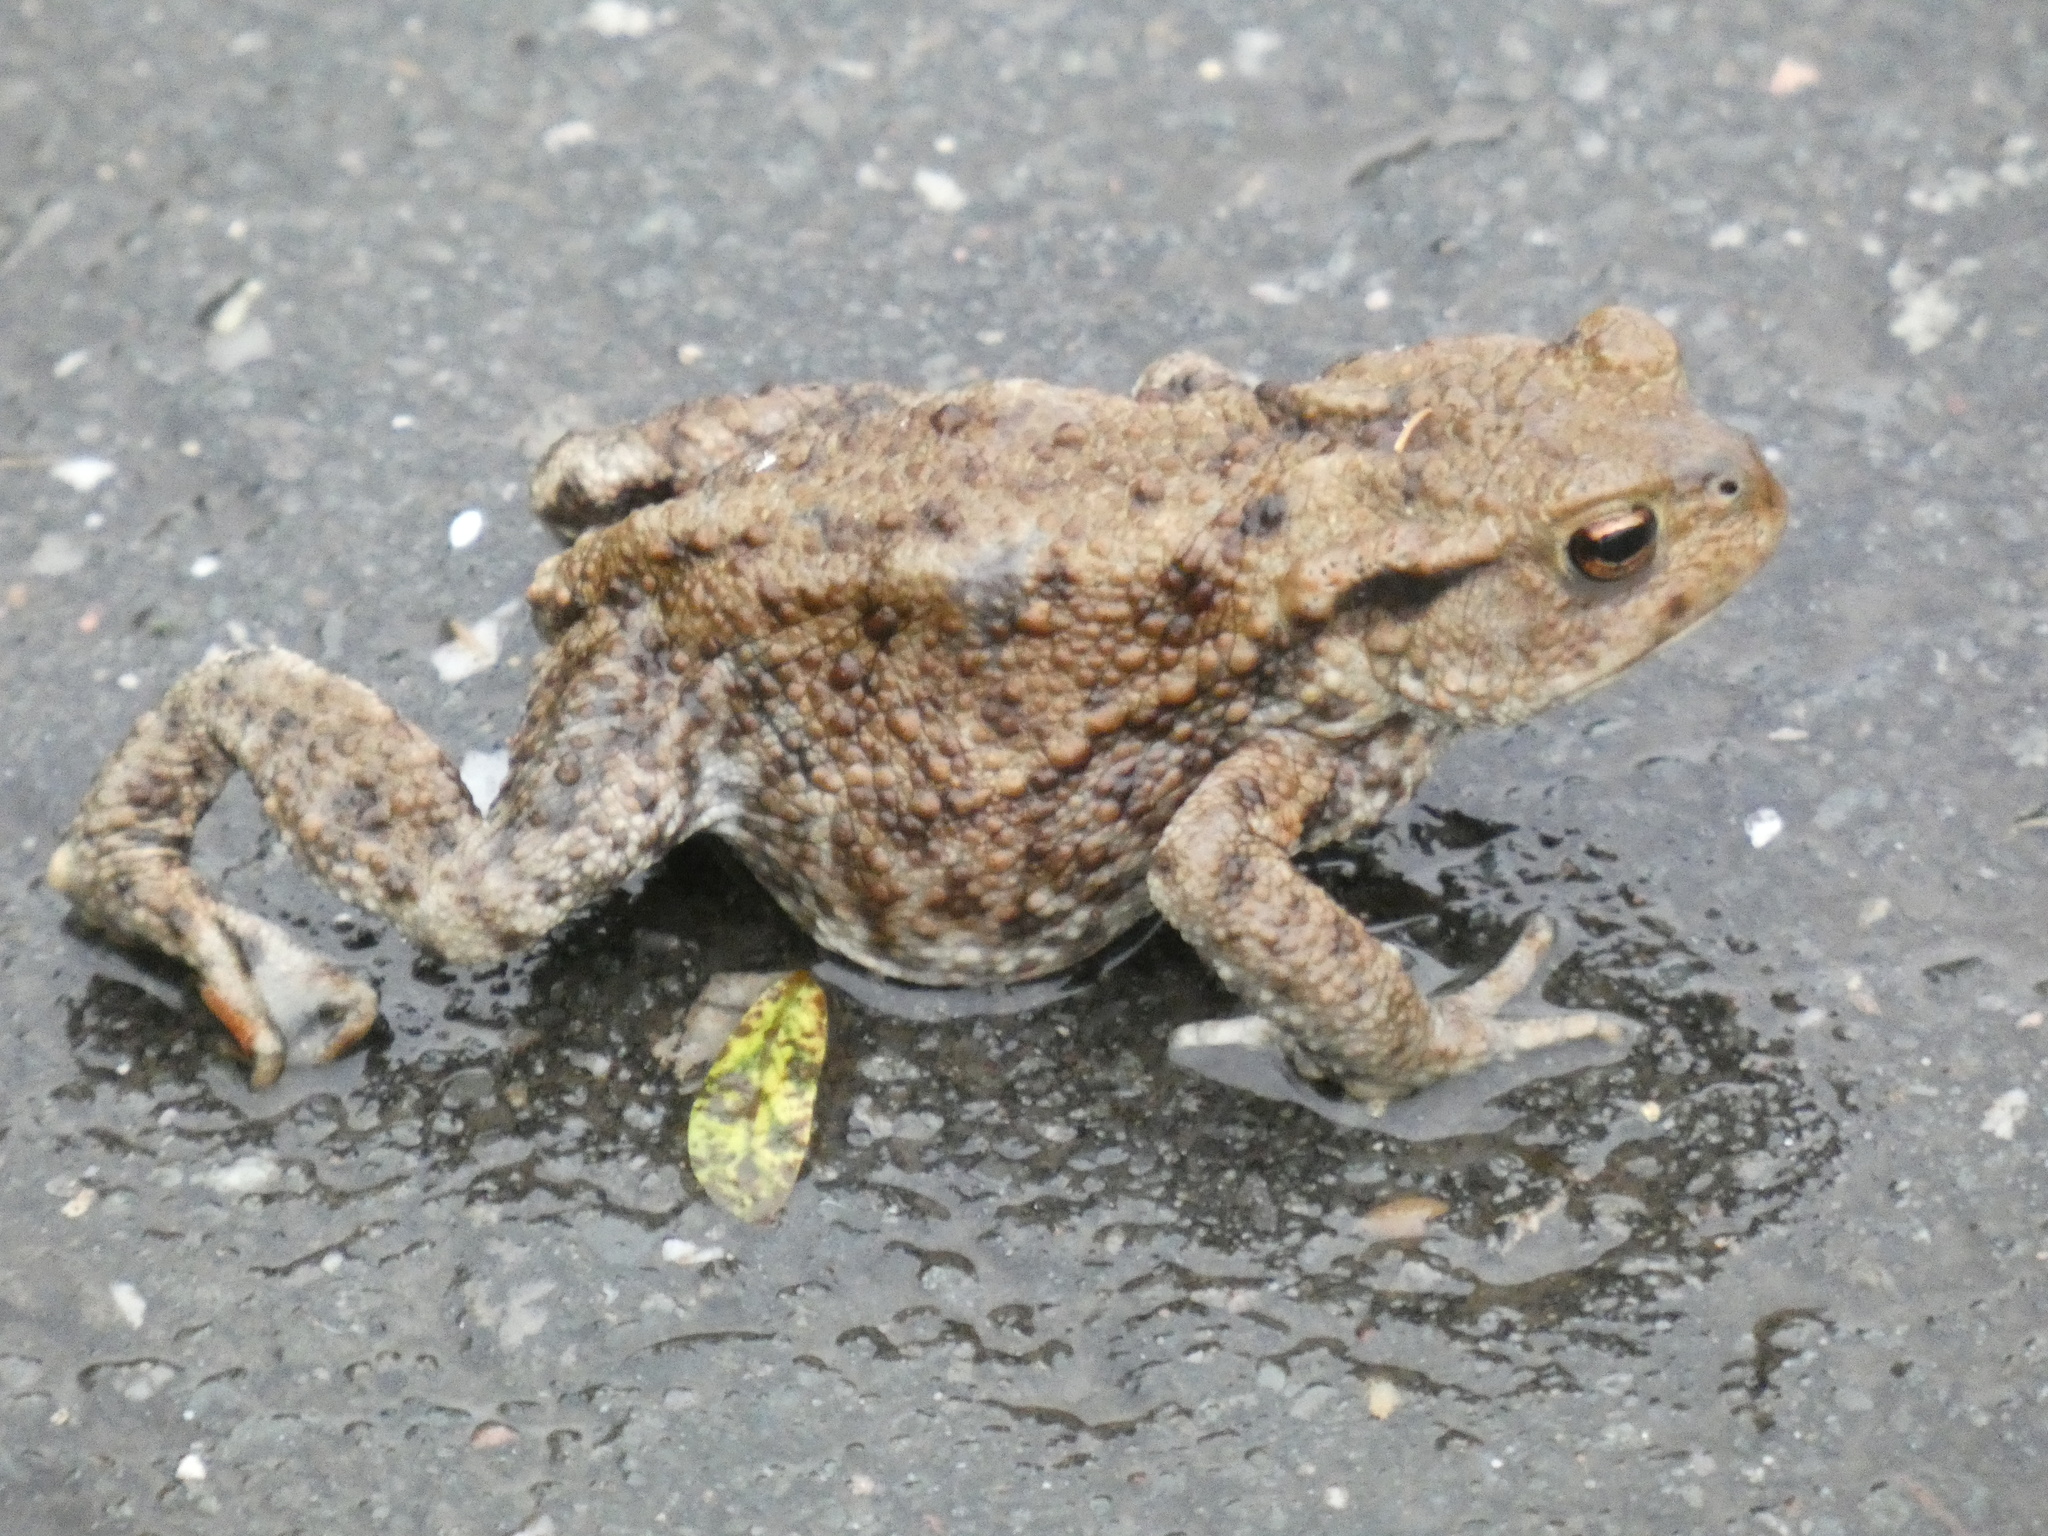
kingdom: Animalia
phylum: Chordata
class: Amphibia
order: Anura
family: Bufonidae
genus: Bufo
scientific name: Bufo bufo
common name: Common toad
